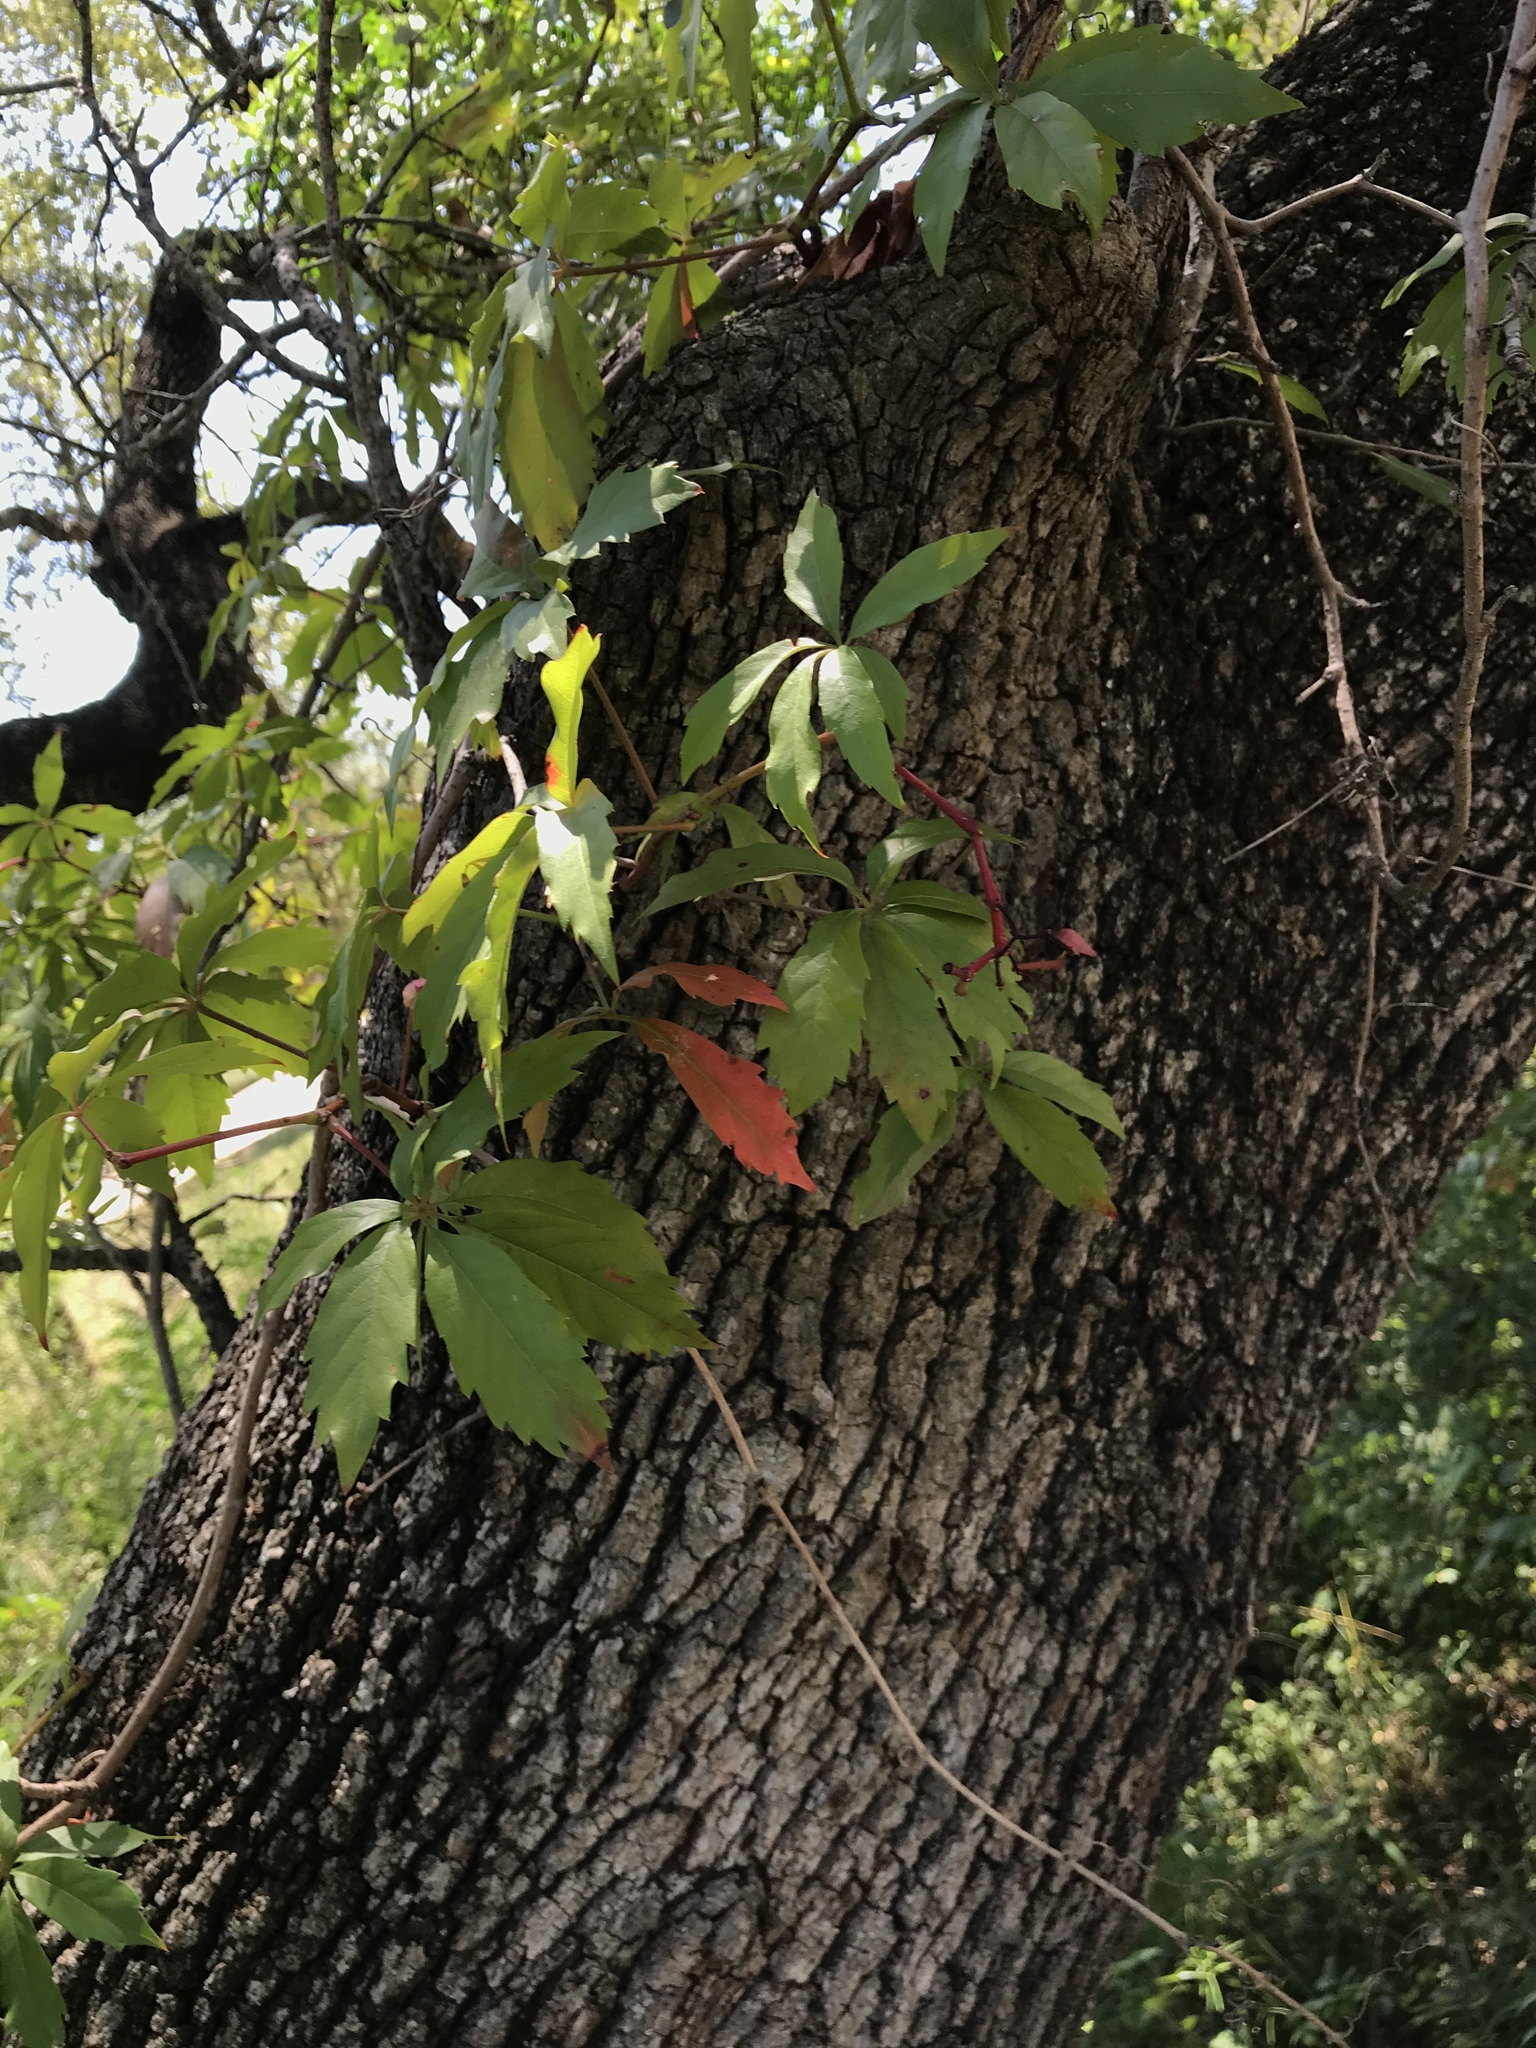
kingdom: Plantae
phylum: Tracheophyta
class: Magnoliopsida
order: Vitales
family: Vitaceae
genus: Parthenocissus
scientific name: Parthenocissus heptaphylla
